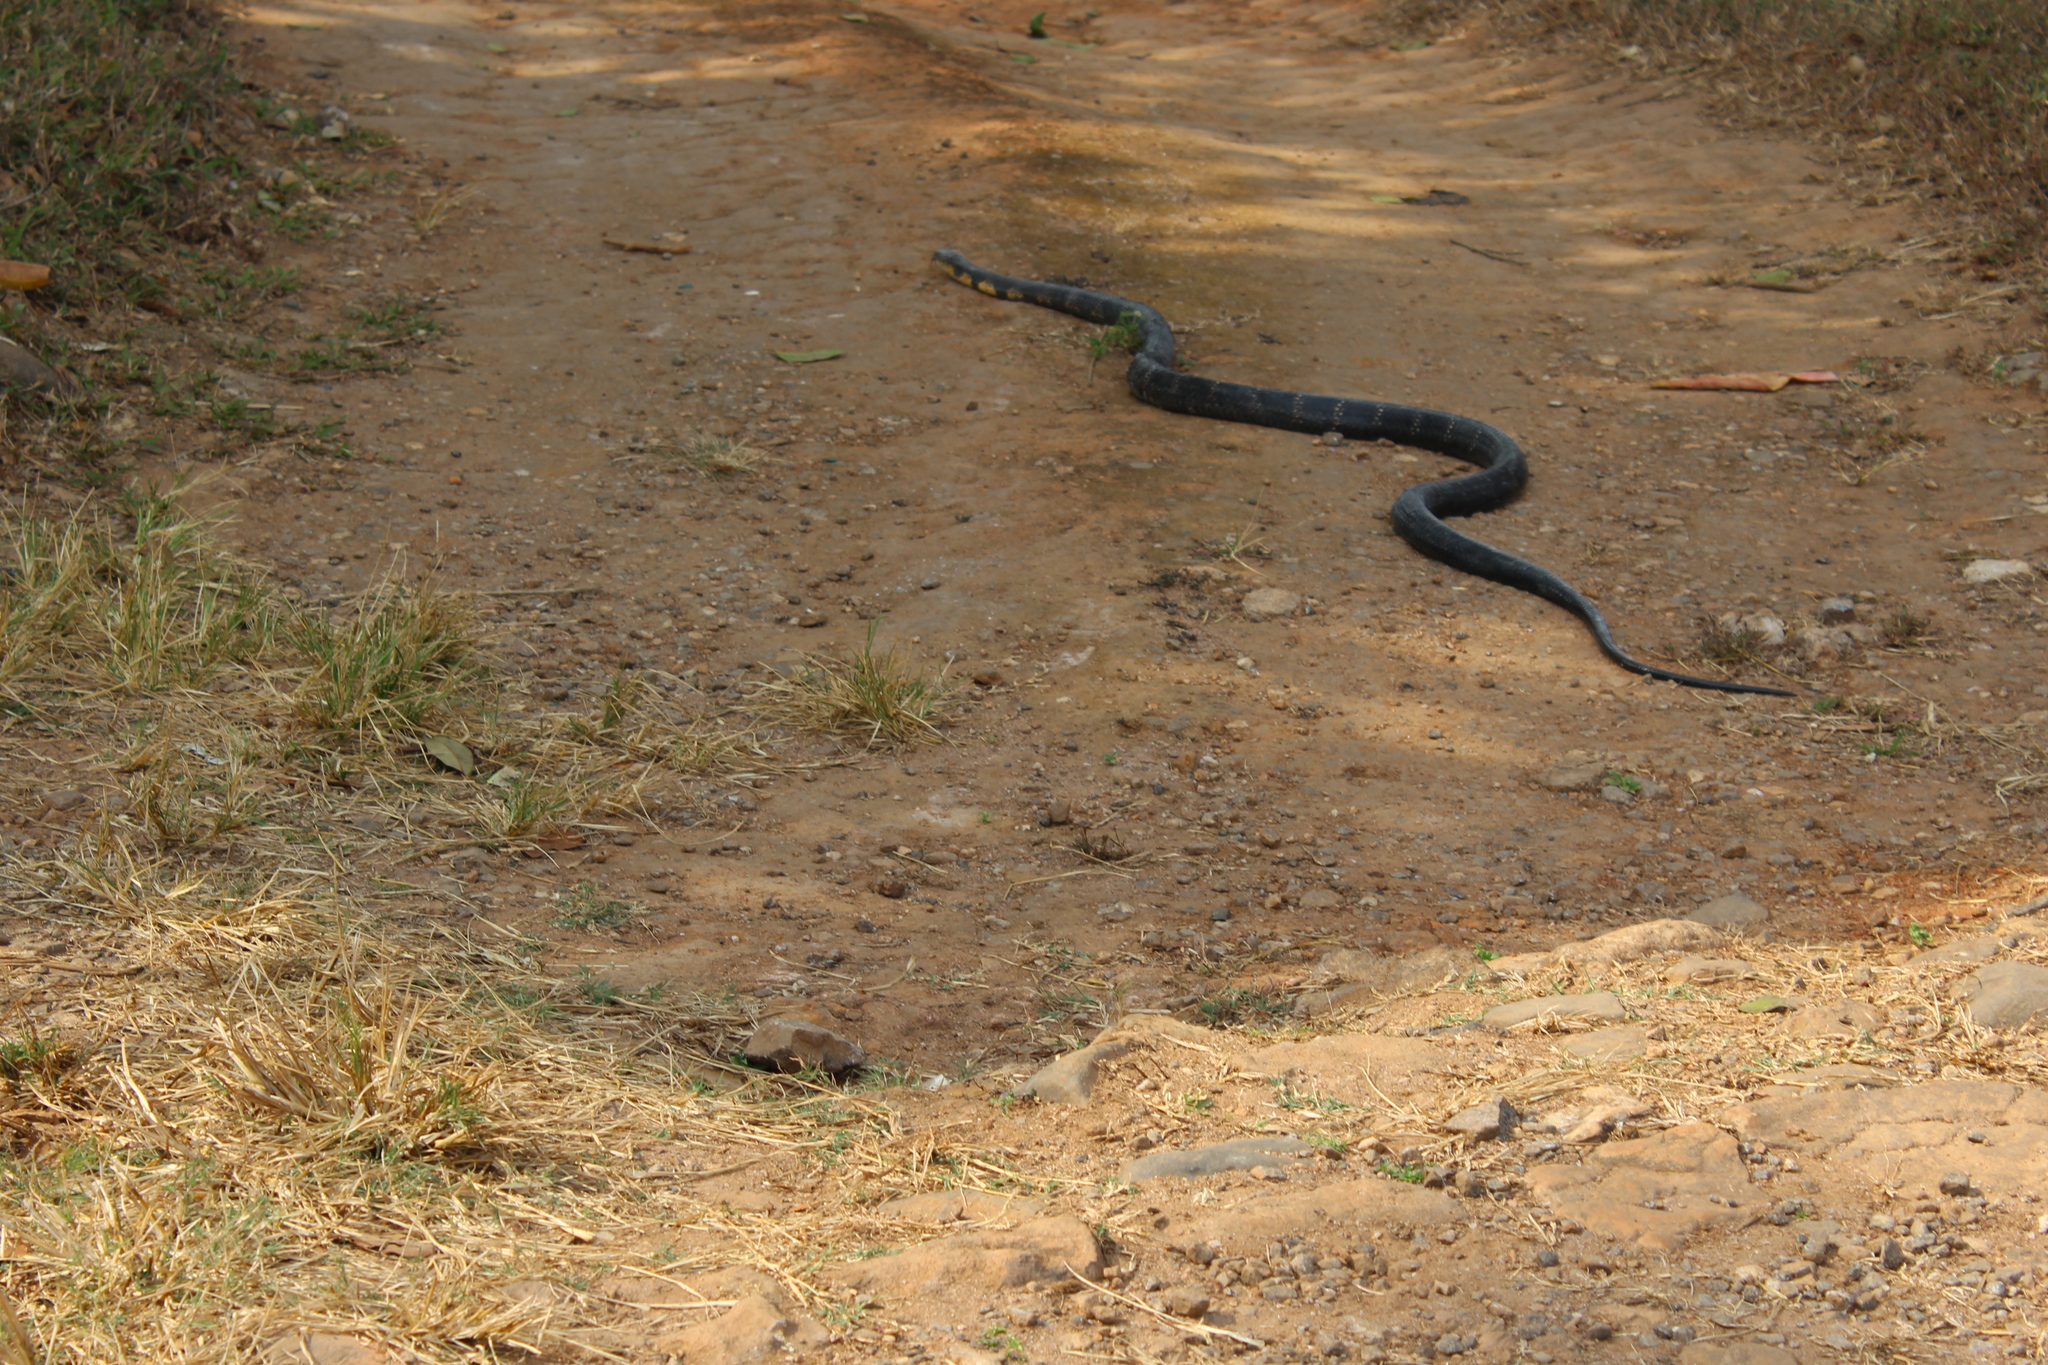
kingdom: Animalia
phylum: Chordata
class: Squamata
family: Elapidae
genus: Ophiophagus
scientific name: Ophiophagus hannah
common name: Hamadryad
